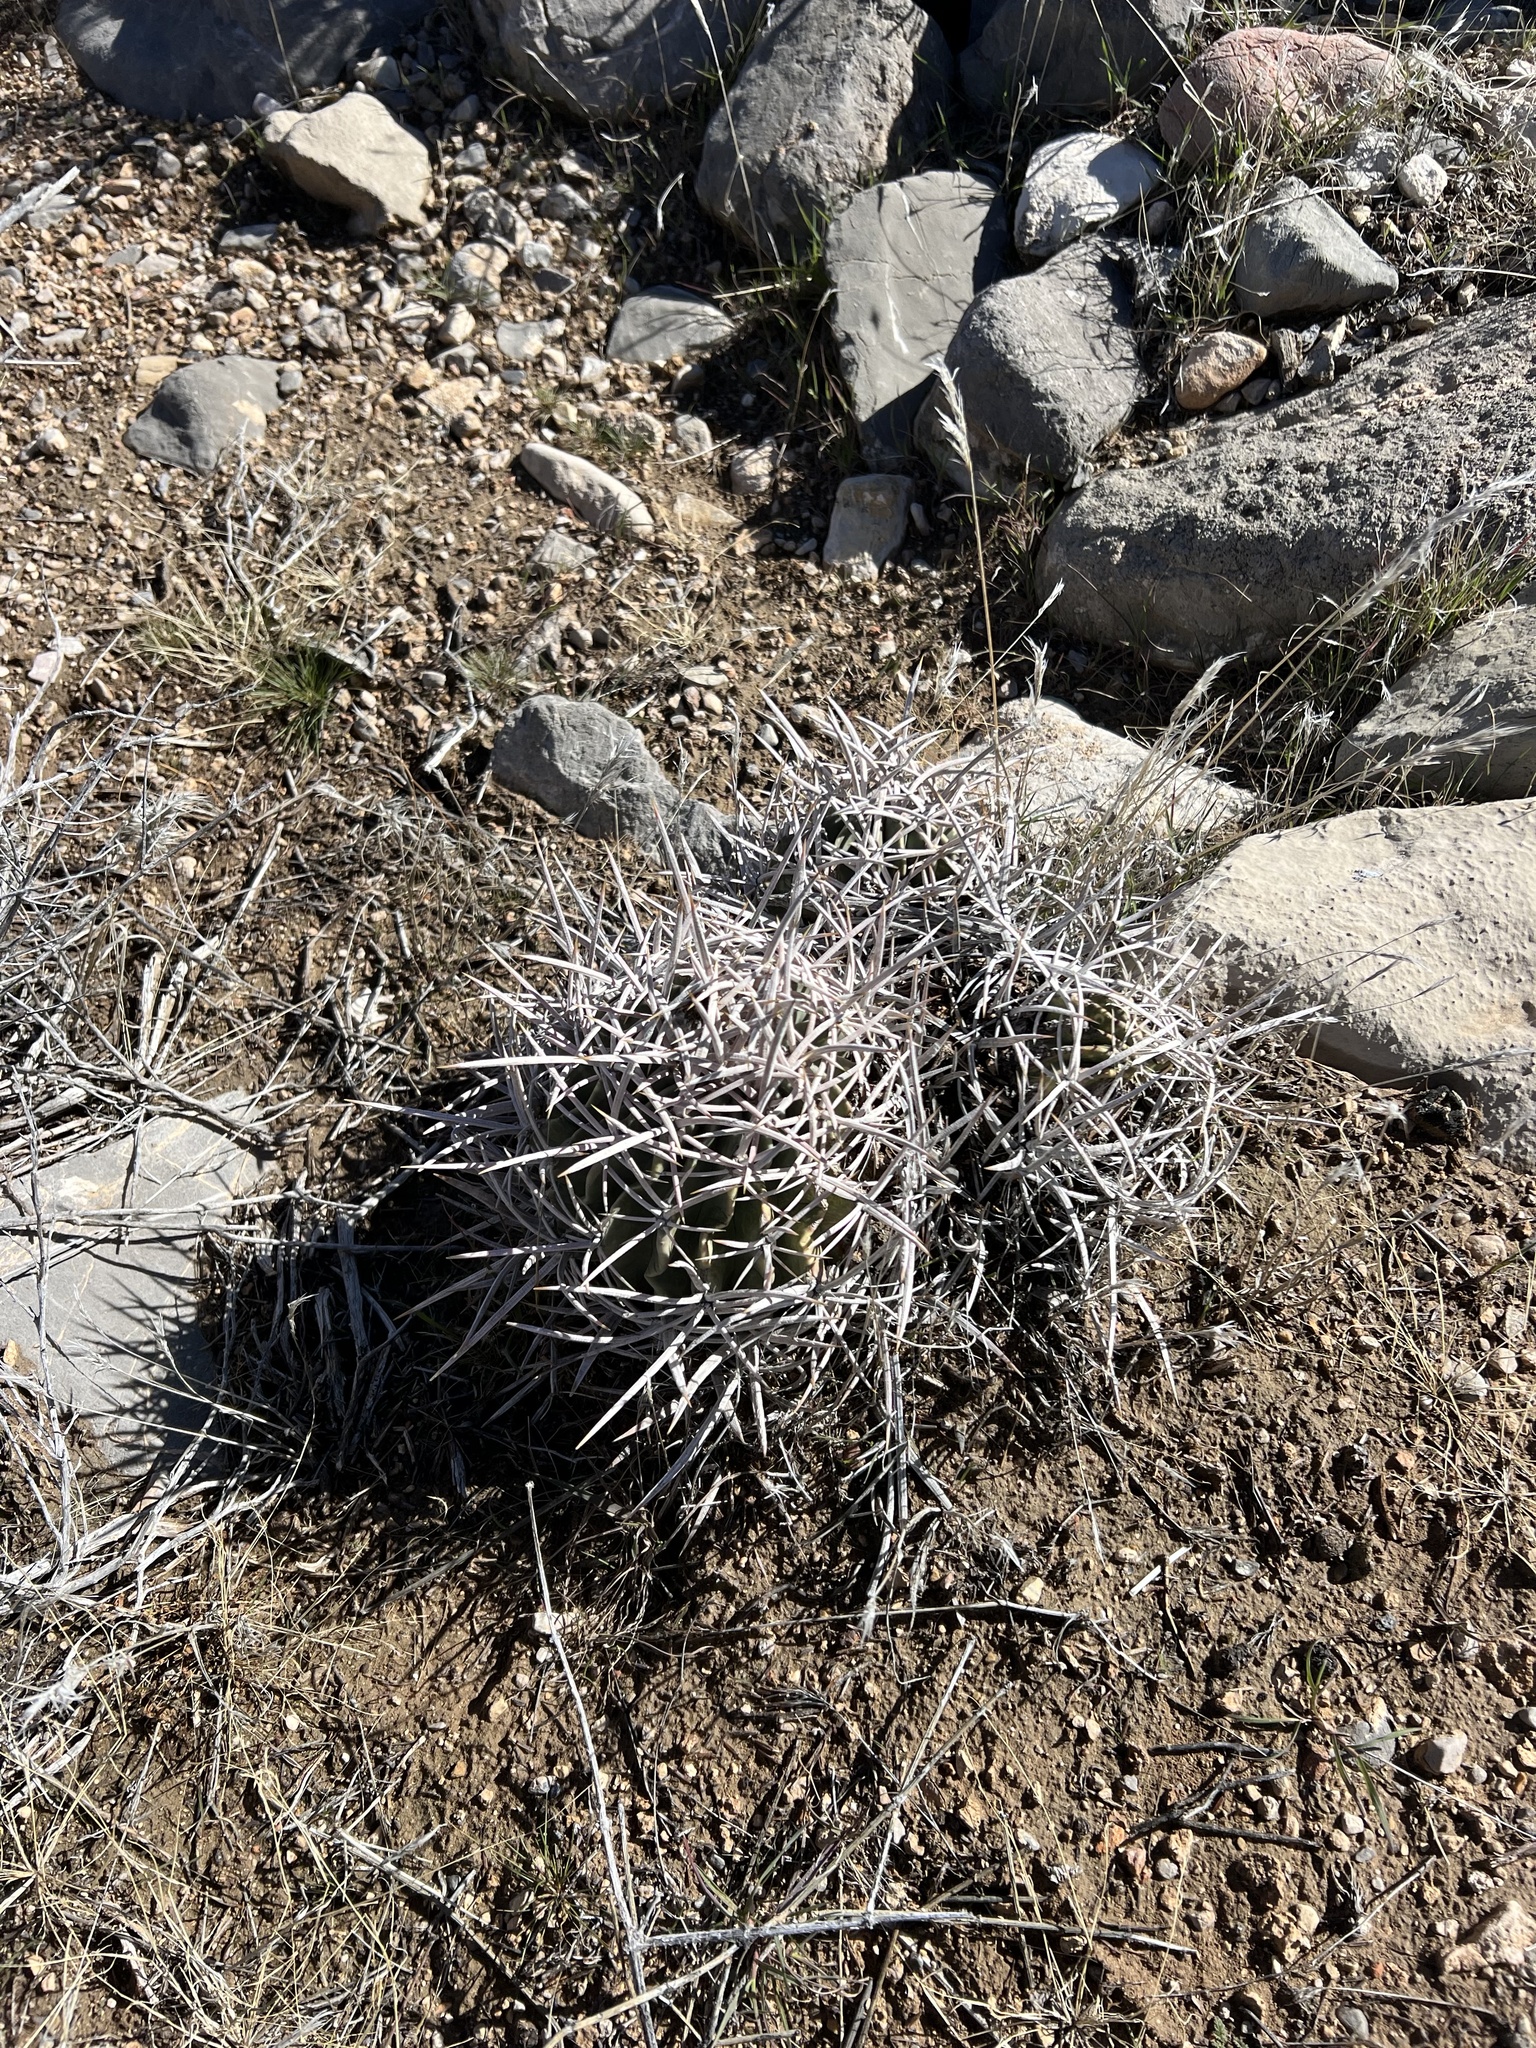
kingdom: Plantae
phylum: Tracheophyta
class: Magnoliopsida
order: Caryophyllales
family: Cactaceae
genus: Echinocactus
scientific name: Echinocactus polycephalus
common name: Cottontop cactus
